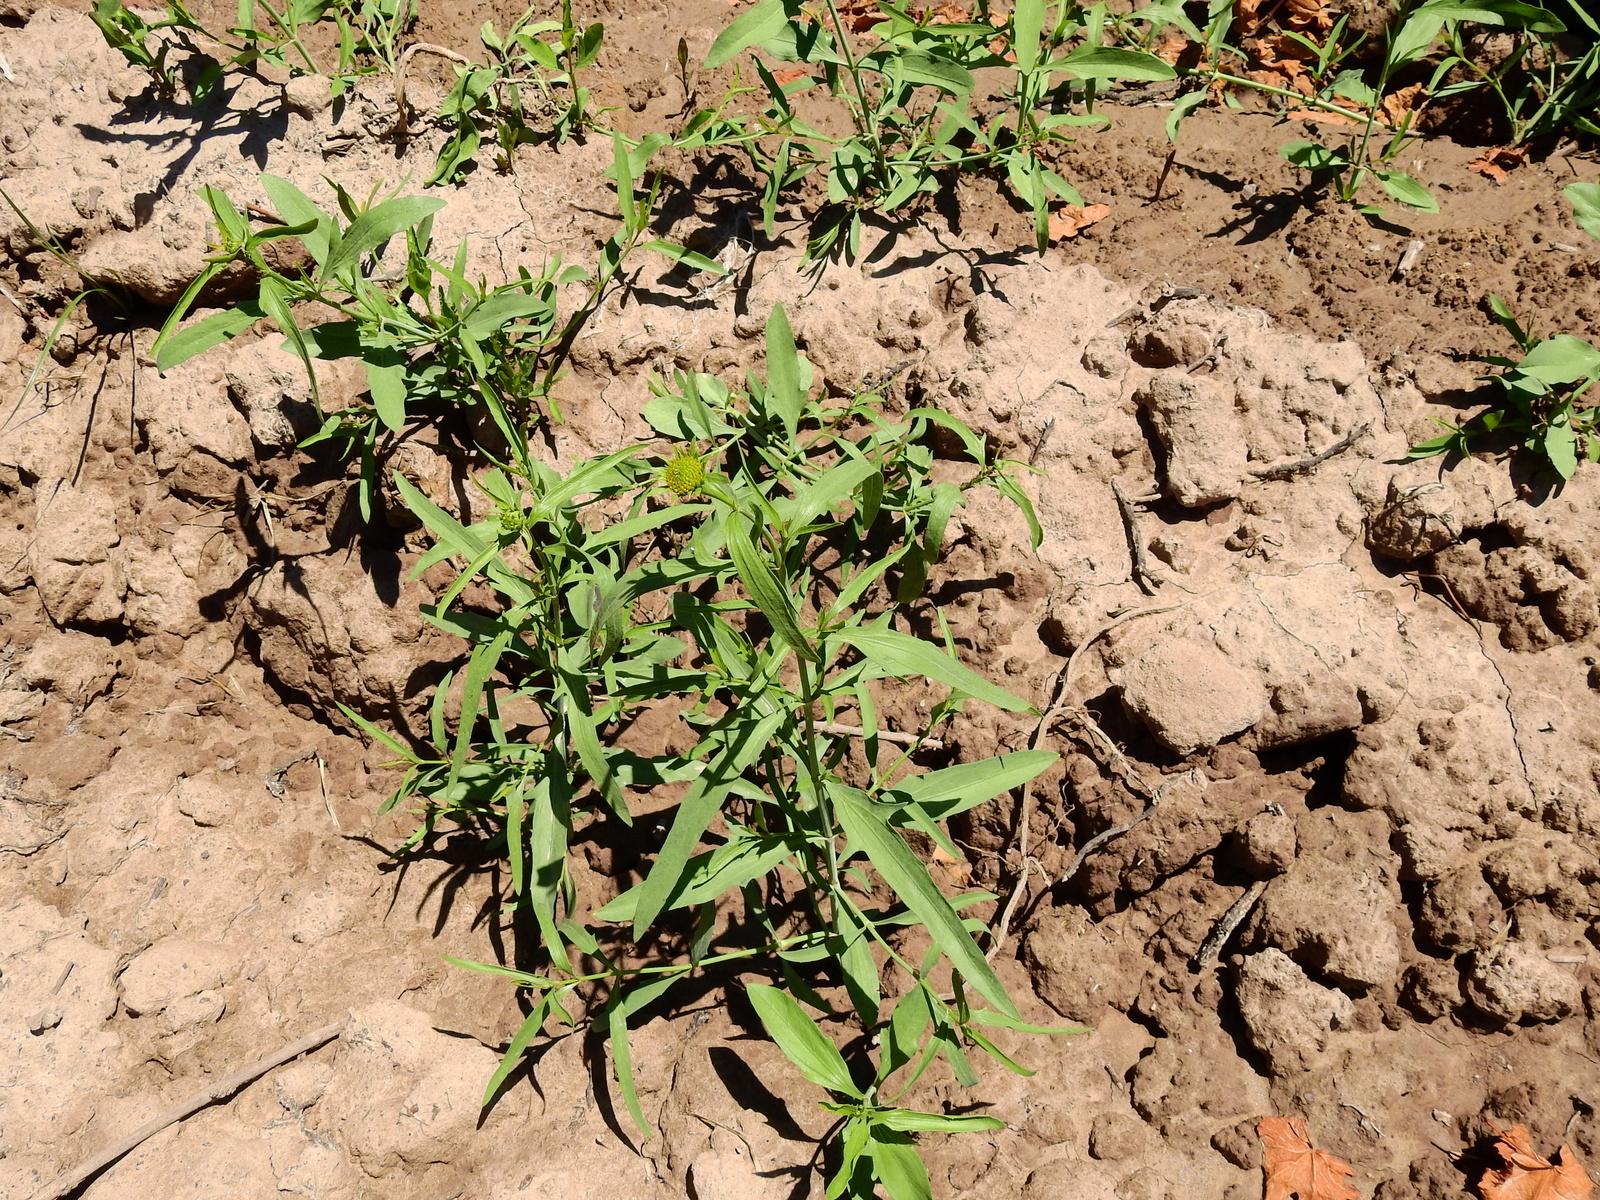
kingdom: Plantae
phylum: Tracheophyta
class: Magnoliopsida
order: Asterales
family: Asteraceae
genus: Pascalia
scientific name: Pascalia glauca
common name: Beach creeping oxeye
